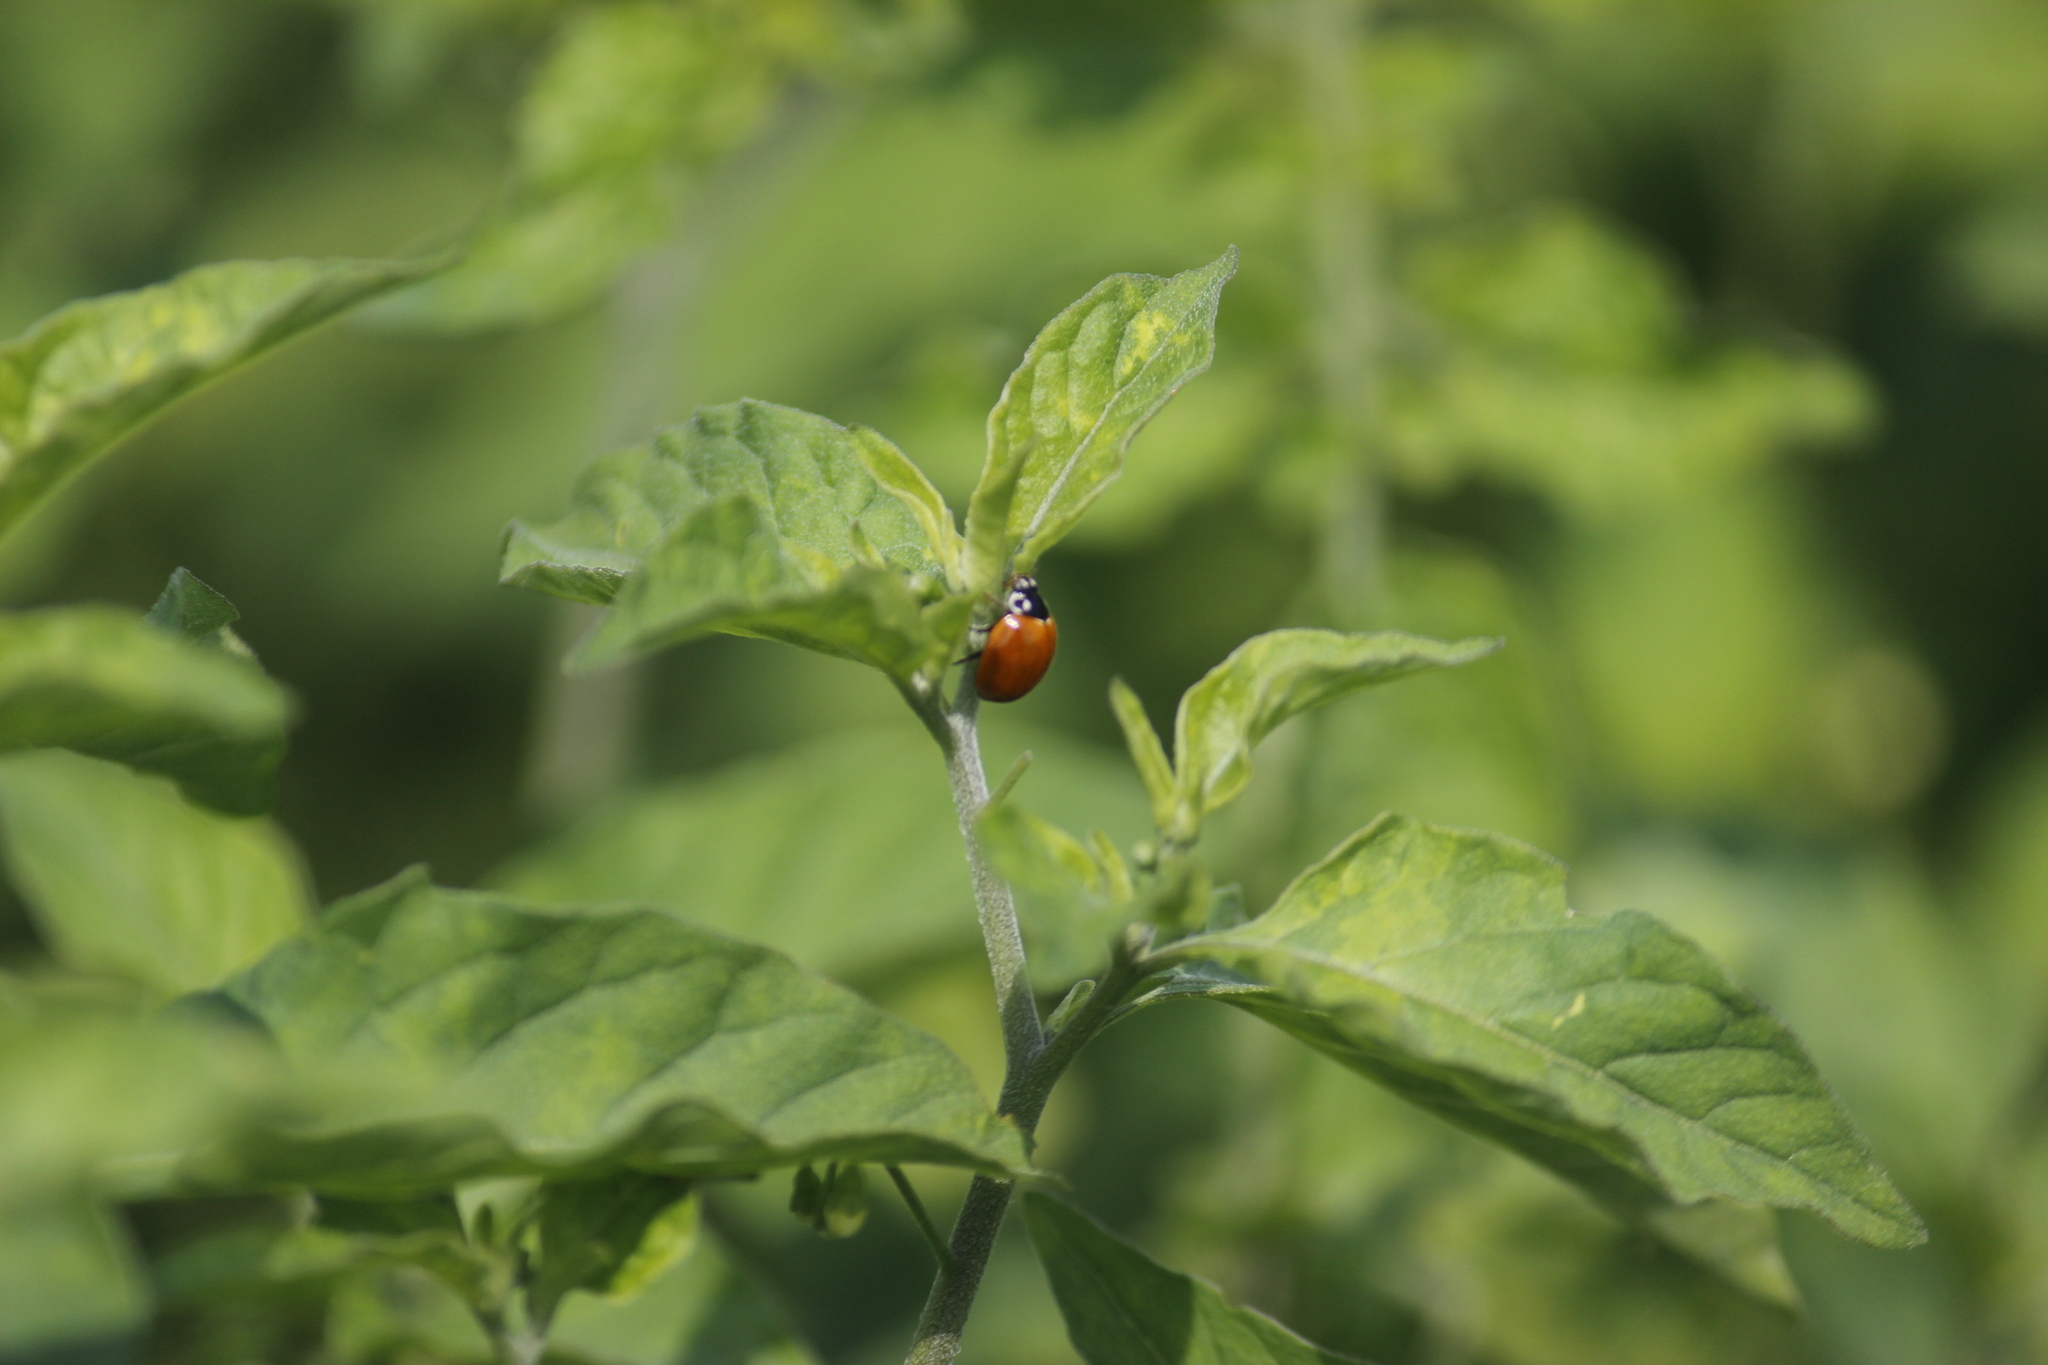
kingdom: Animalia
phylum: Arthropoda
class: Insecta
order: Coleoptera
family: Coccinellidae
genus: Cycloneda
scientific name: Cycloneda sanguinea
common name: Ladybird beetle
